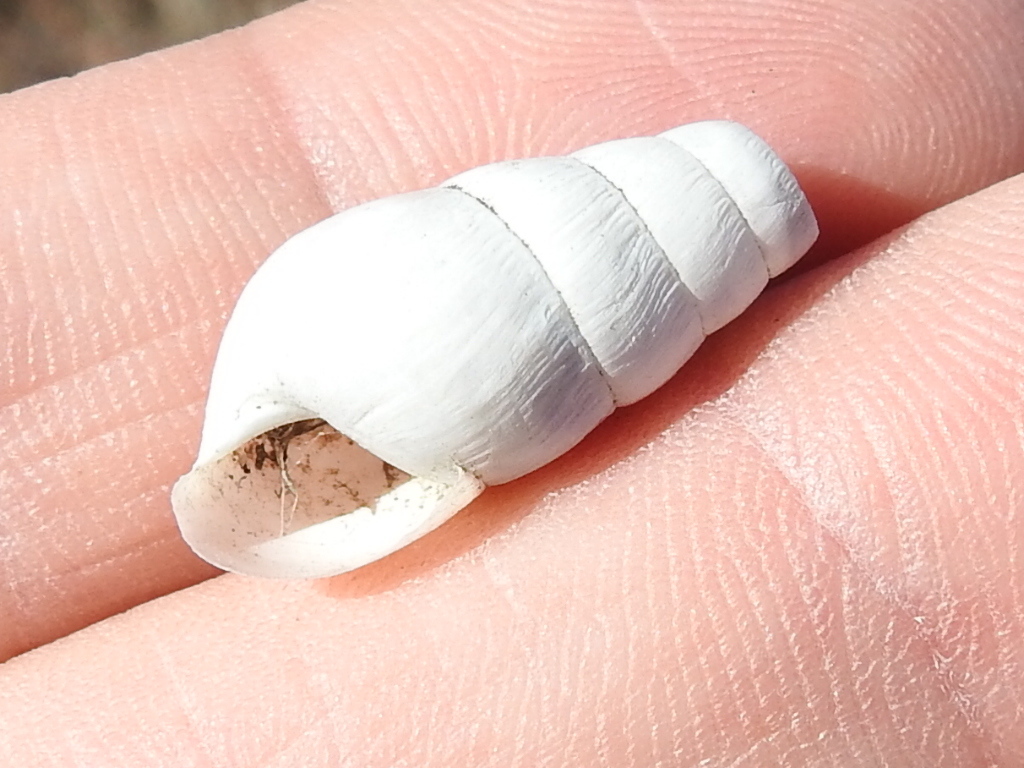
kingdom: Animalia
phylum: Mollusca
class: Gastropoda
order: Stylommatophora
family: Achatinidae
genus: Rumina
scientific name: Rumina decollata
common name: Decollate snail
